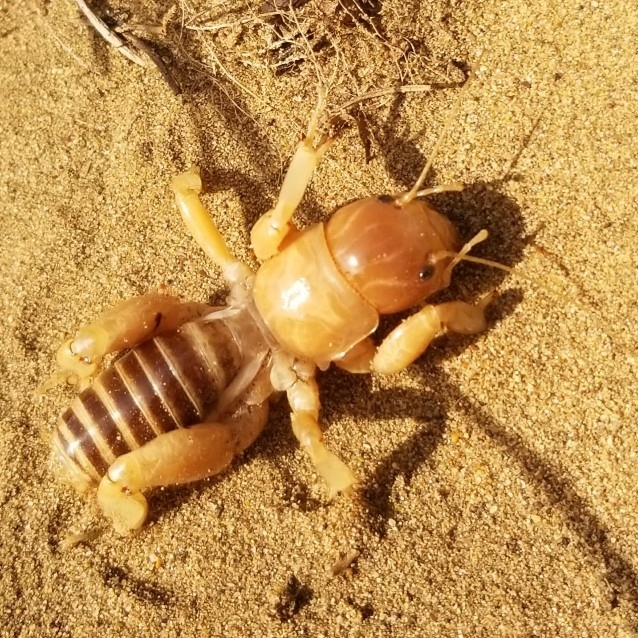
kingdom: Animalia
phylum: Arthropoda
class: Insecta
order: Orthoptera
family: Stenopelmatidae
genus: Ammopelmatus
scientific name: Ammopelmatus muwu
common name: Port conception jerusalem cricket
